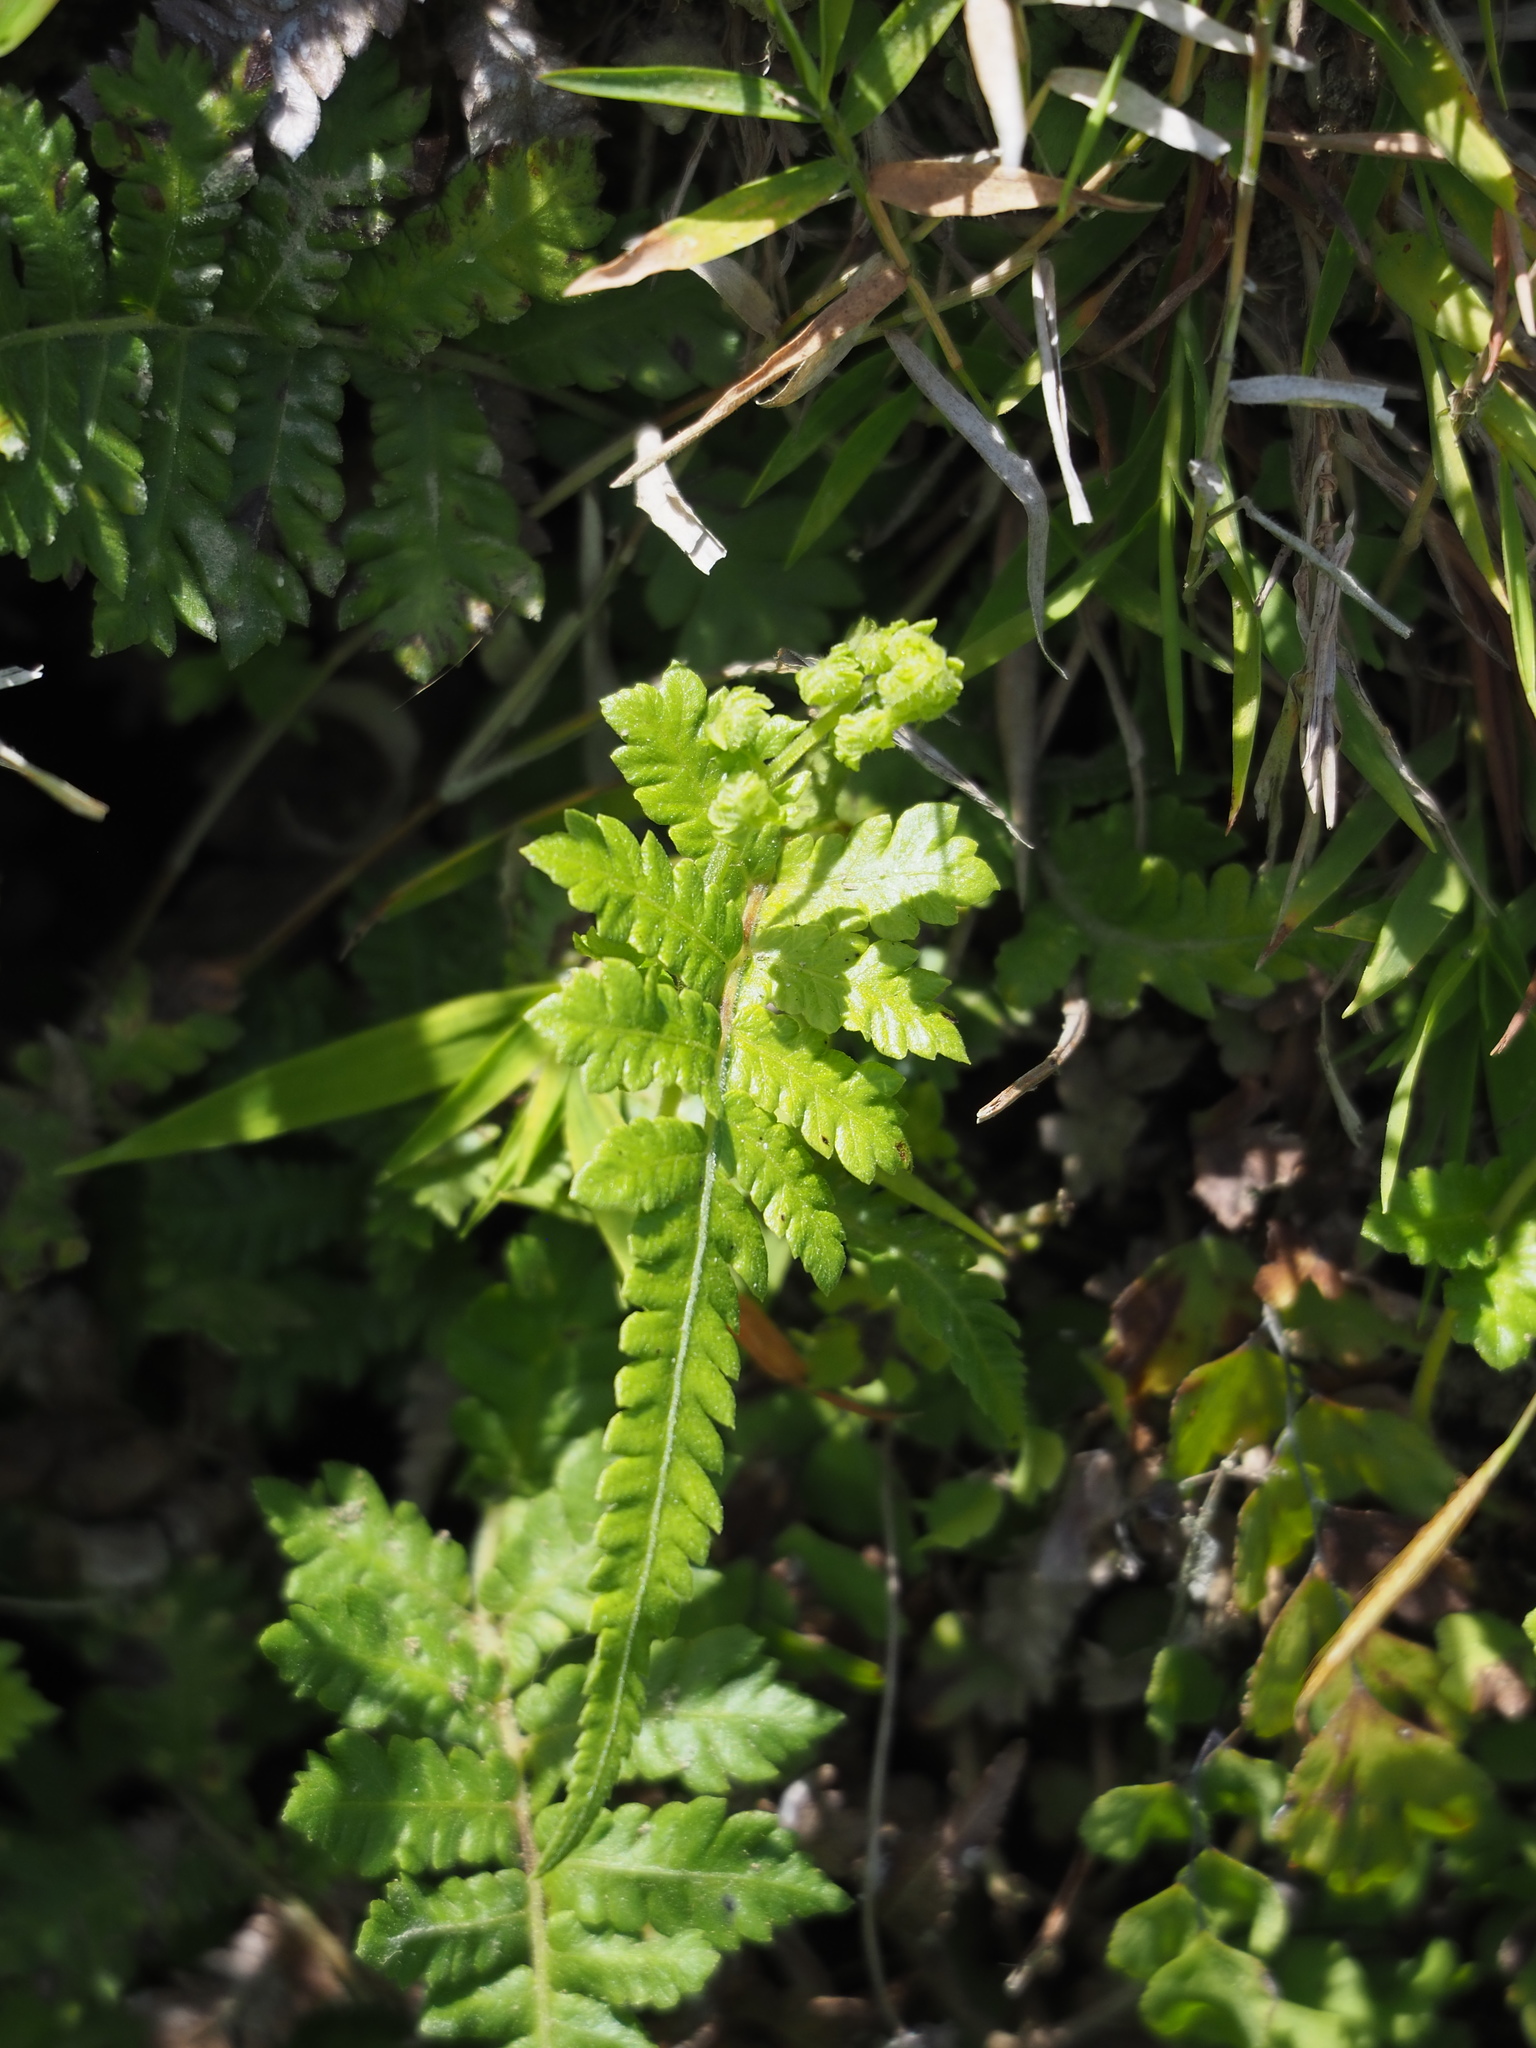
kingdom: Plantae
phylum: Tracheophyta
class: Polypodiopsida
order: Polypodiales
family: Thelypteridaceae
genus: Christella
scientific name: Christella acuminata
